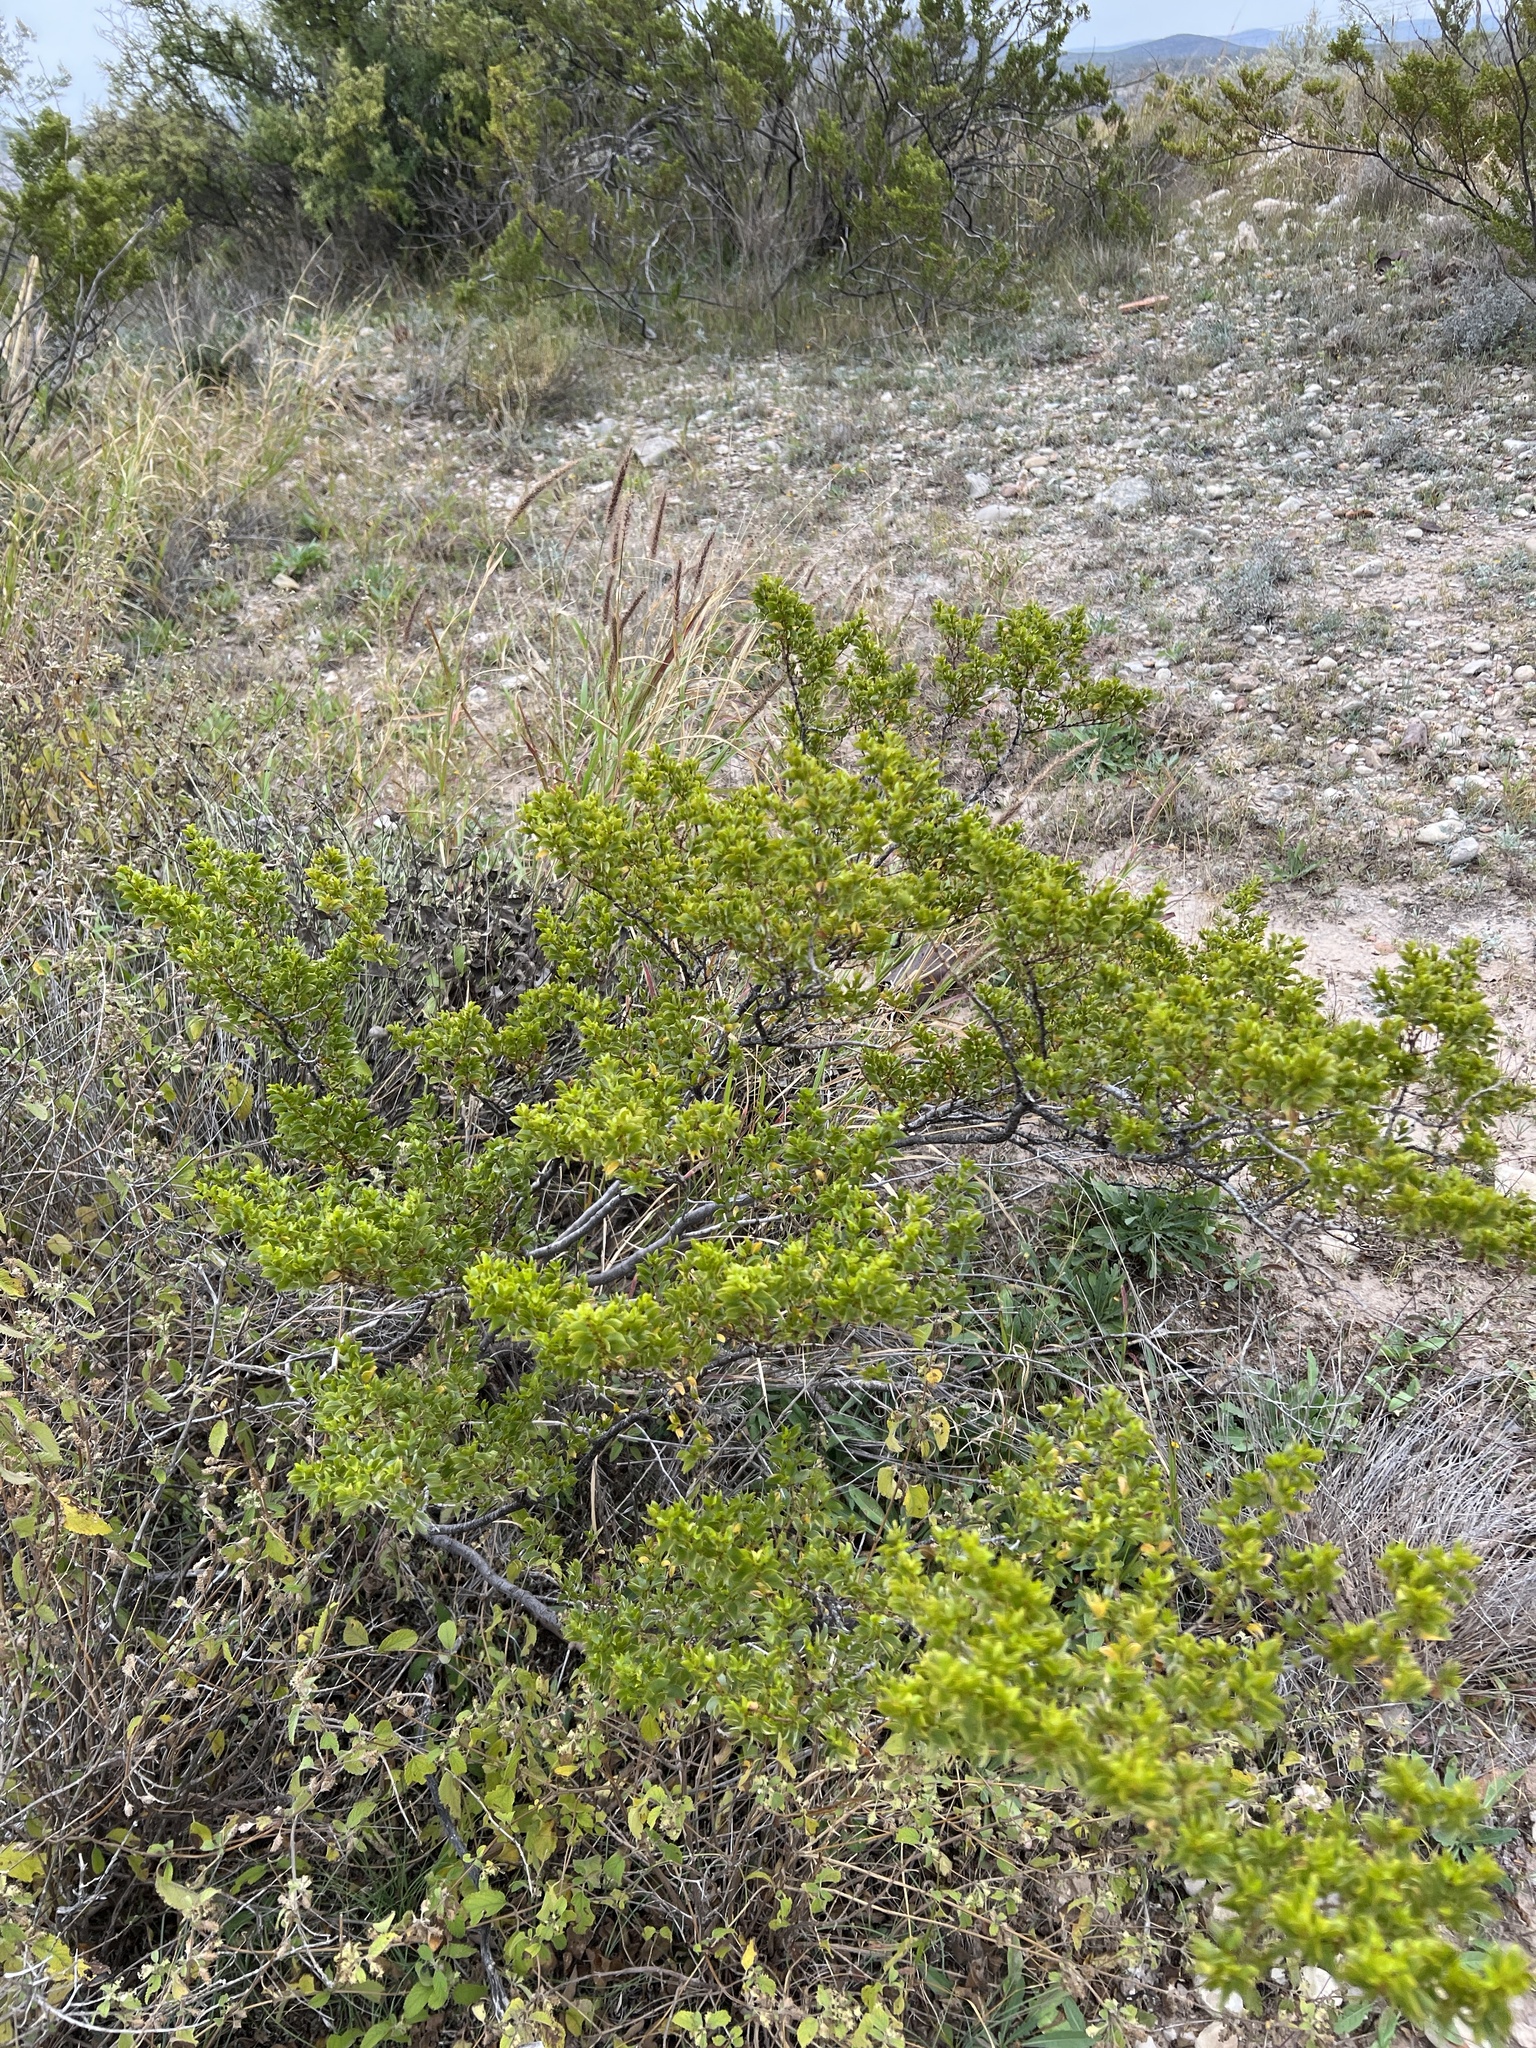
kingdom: Plantae
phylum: Tracheophyta
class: Magnoliopsida
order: Zygophyllales
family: Zygophyllaceae
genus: Larrea
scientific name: Larrea tridentata
